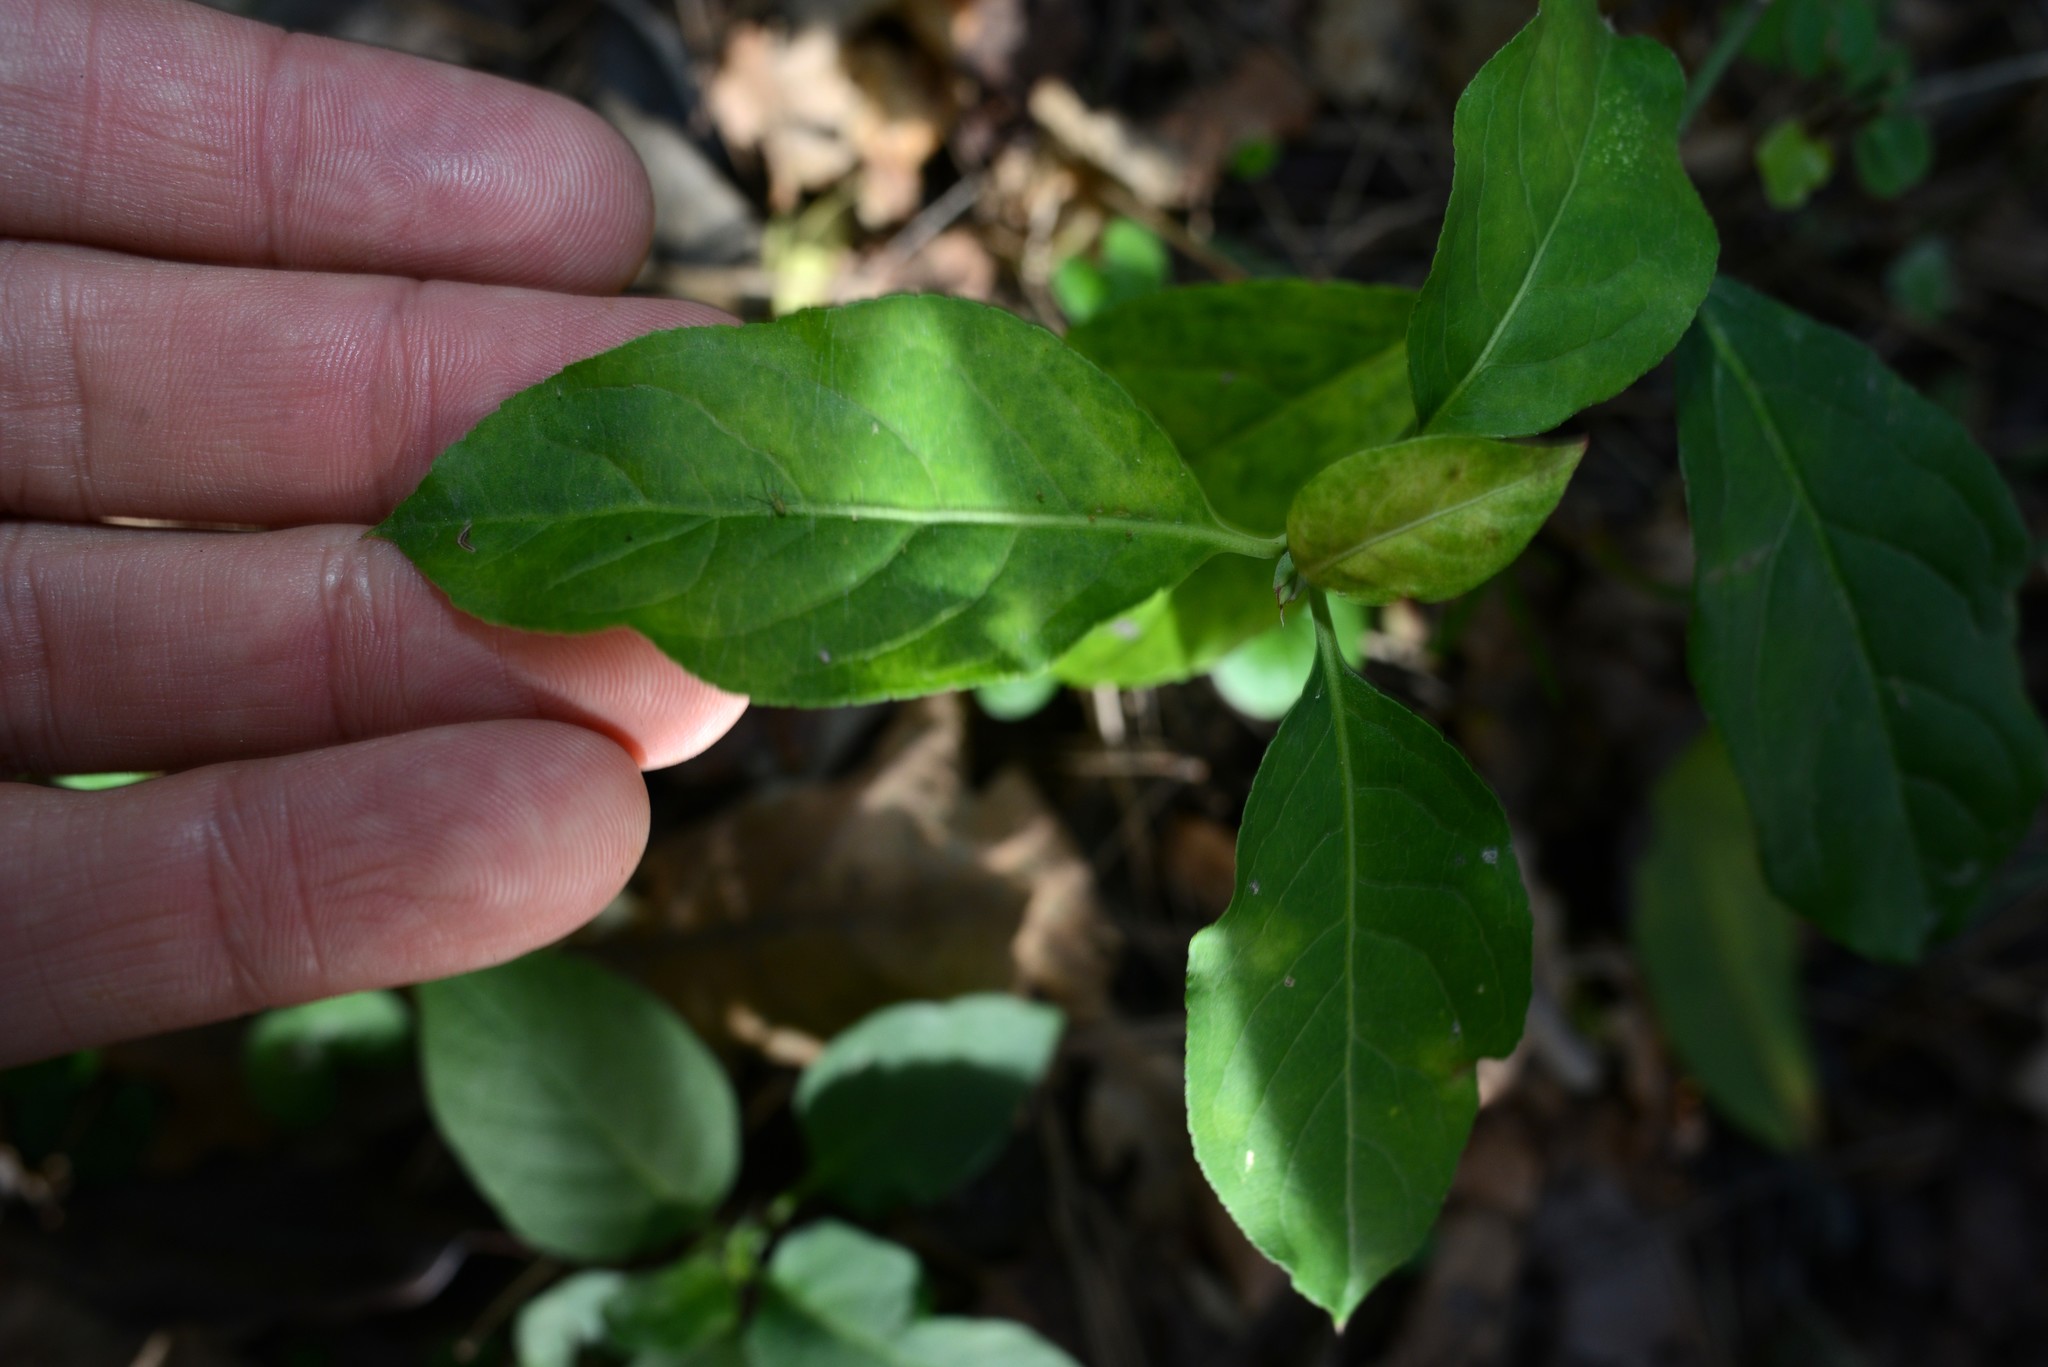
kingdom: Plantae
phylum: Tracheophyta
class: Magnoliopsida
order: Celastrales
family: Celastraceae
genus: Euonymus
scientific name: Euonymus europaeus
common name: Spindle
